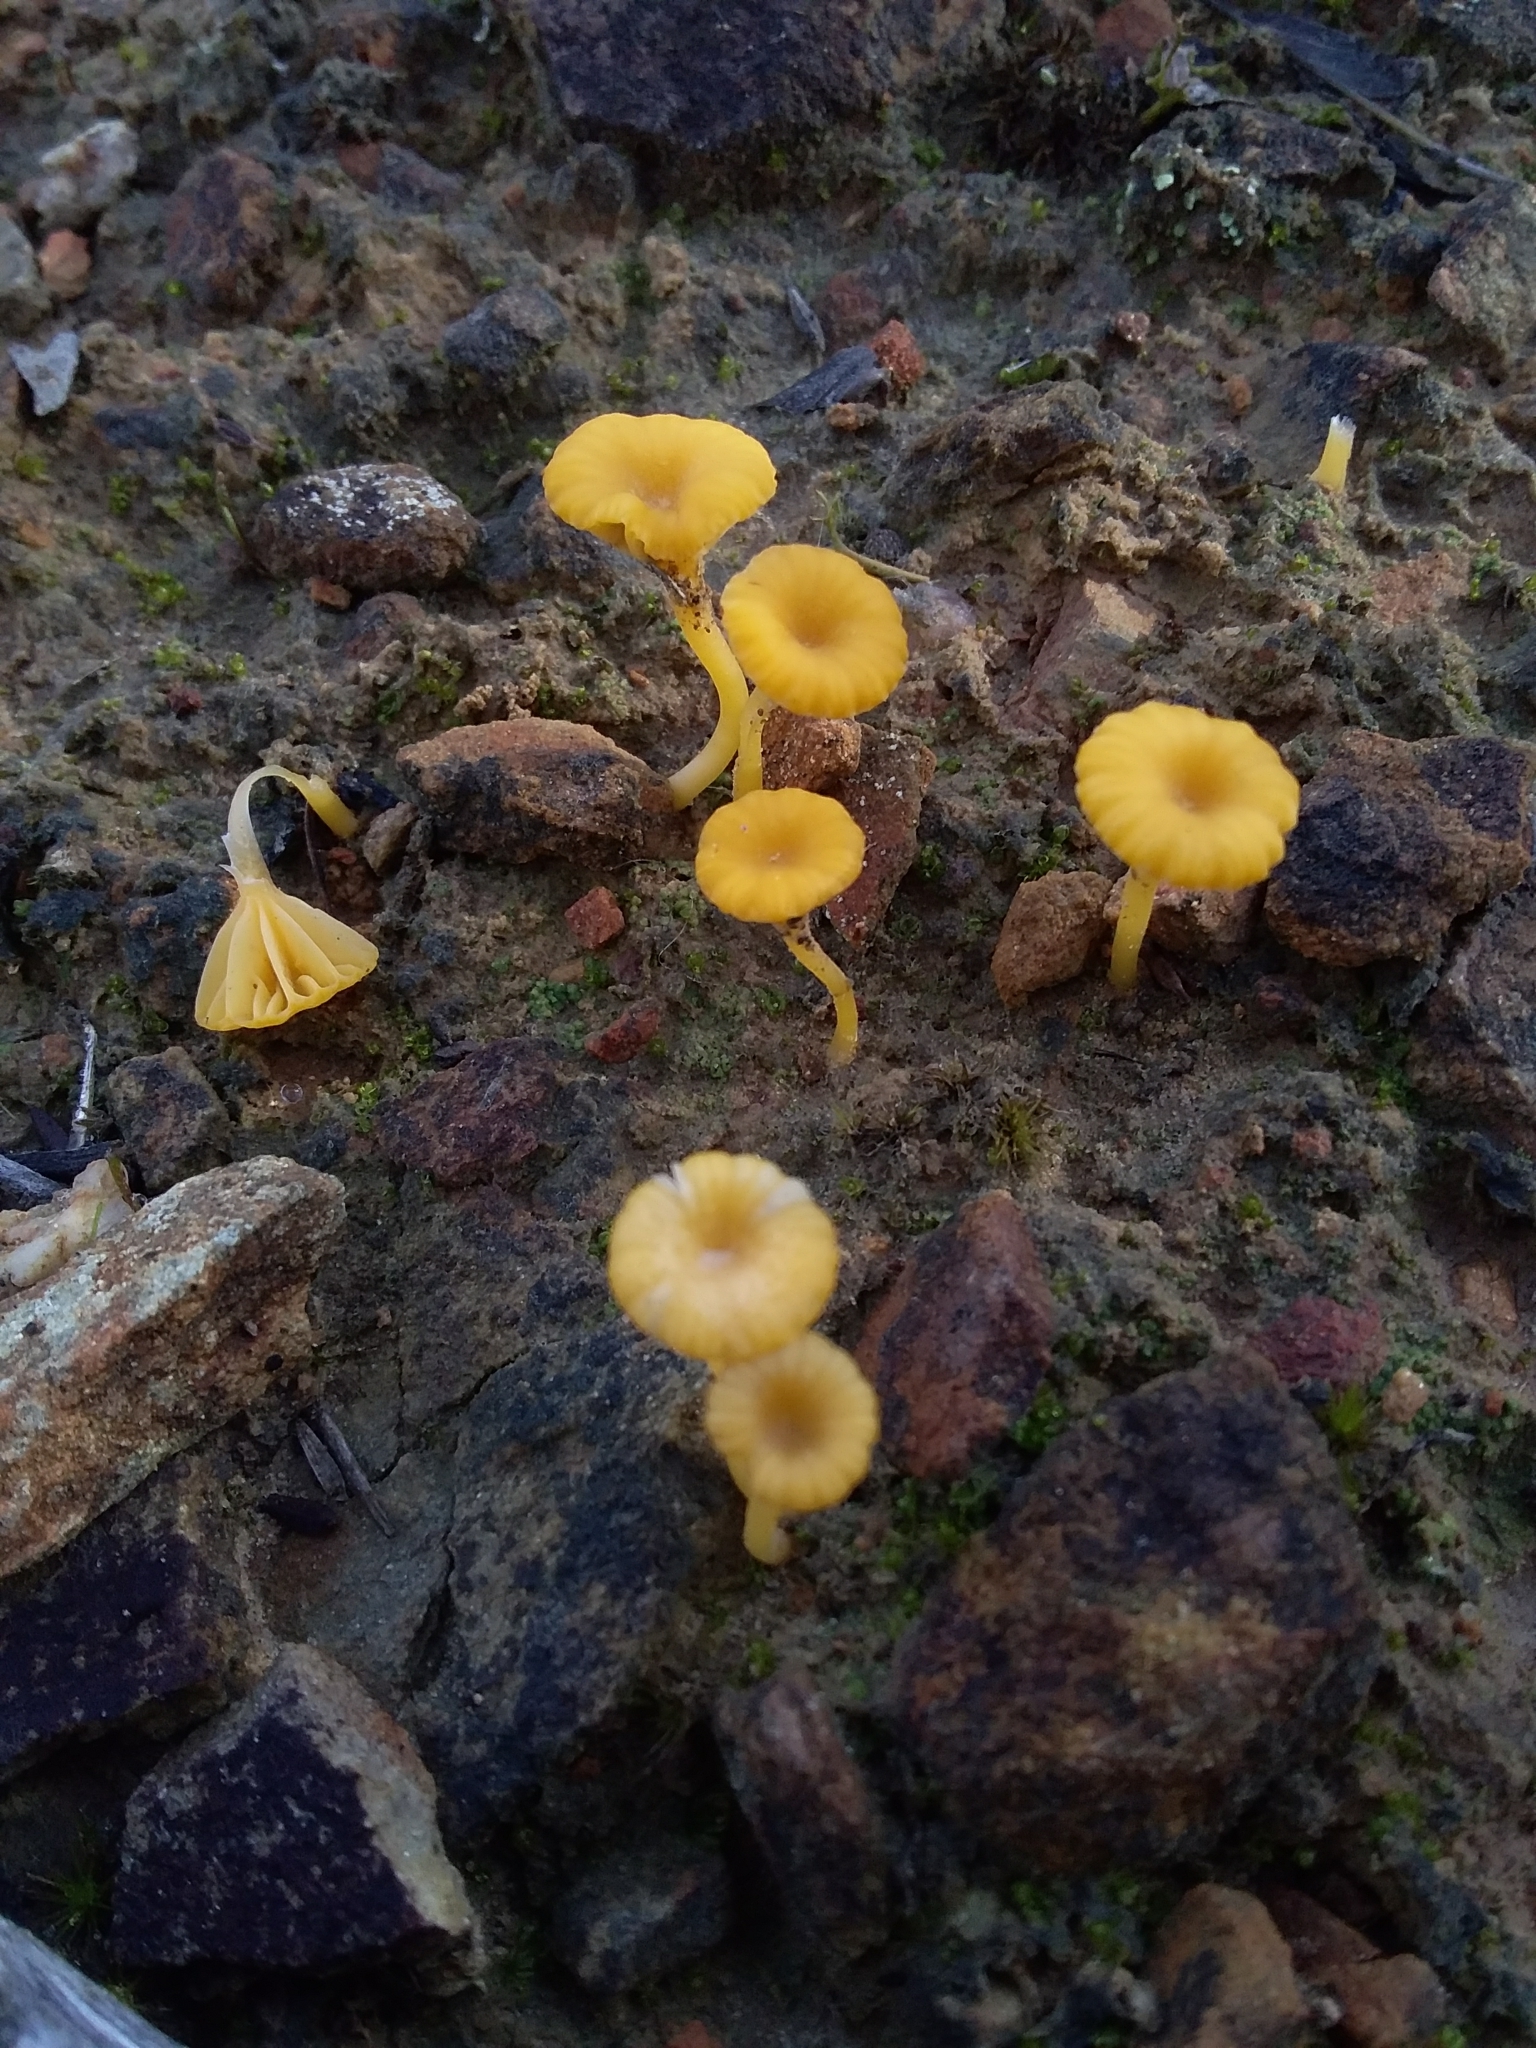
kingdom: Fungi
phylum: Basidiomycota
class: Agaricomycetes
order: Agaricales
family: Hygrophoraceae
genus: Lichenomphalia
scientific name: Lichenomphalia chromacea
